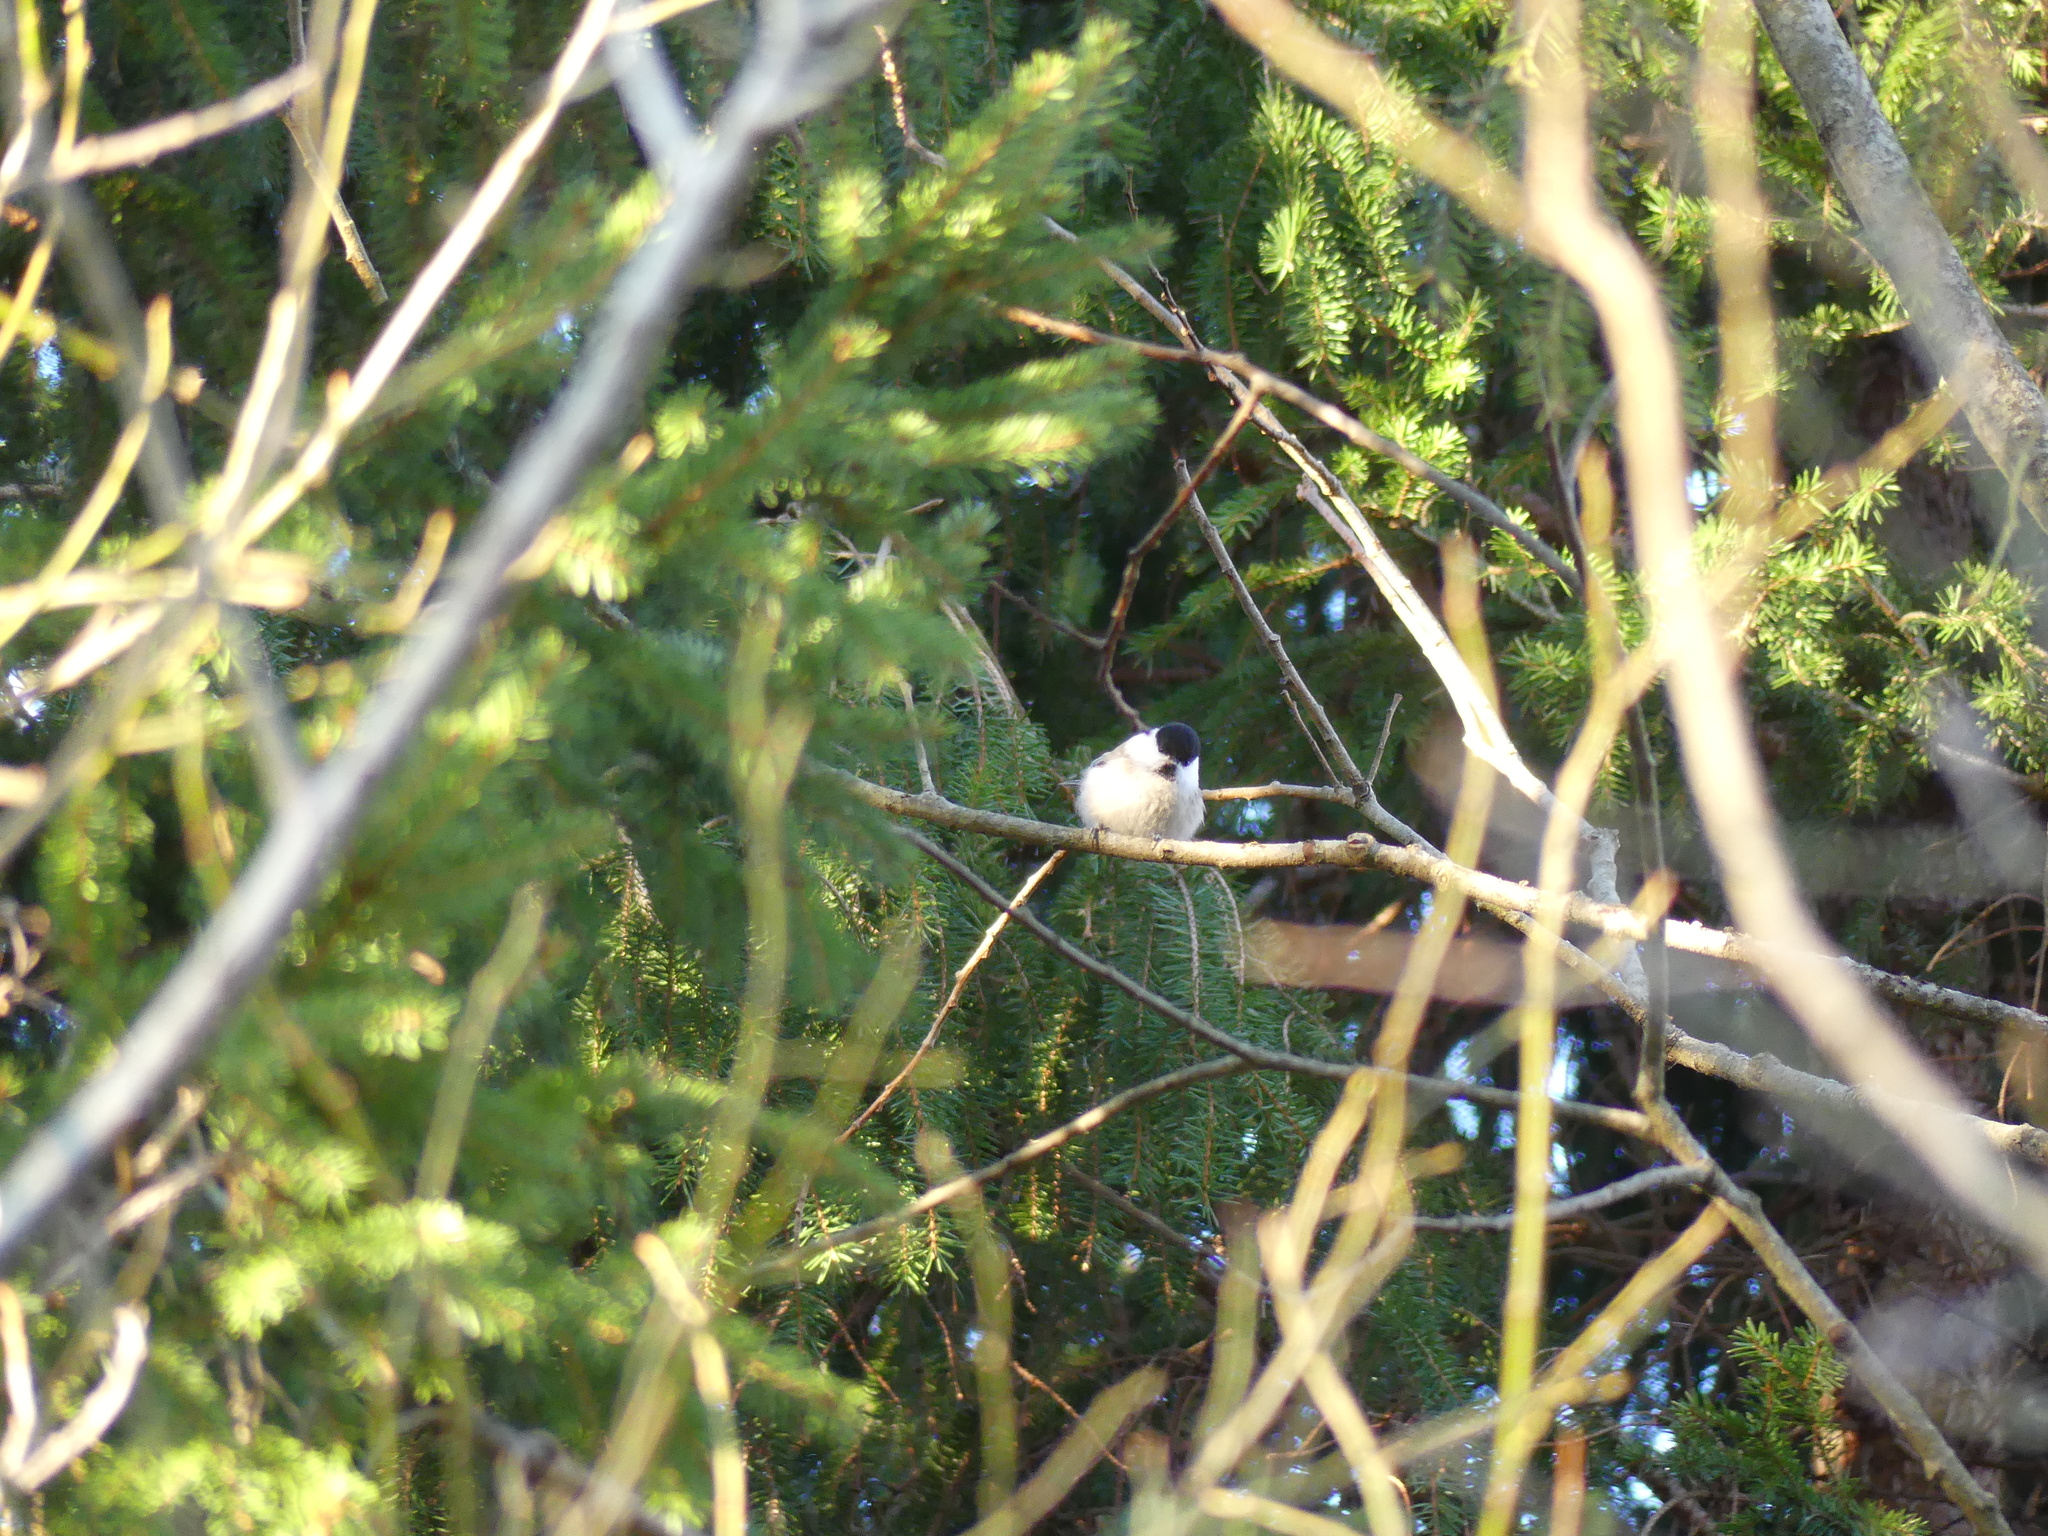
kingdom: Animalia
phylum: Chordata
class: Aves
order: Passeriformes
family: Paridae
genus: Poecile
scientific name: Poecile montanus
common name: Willow tit
